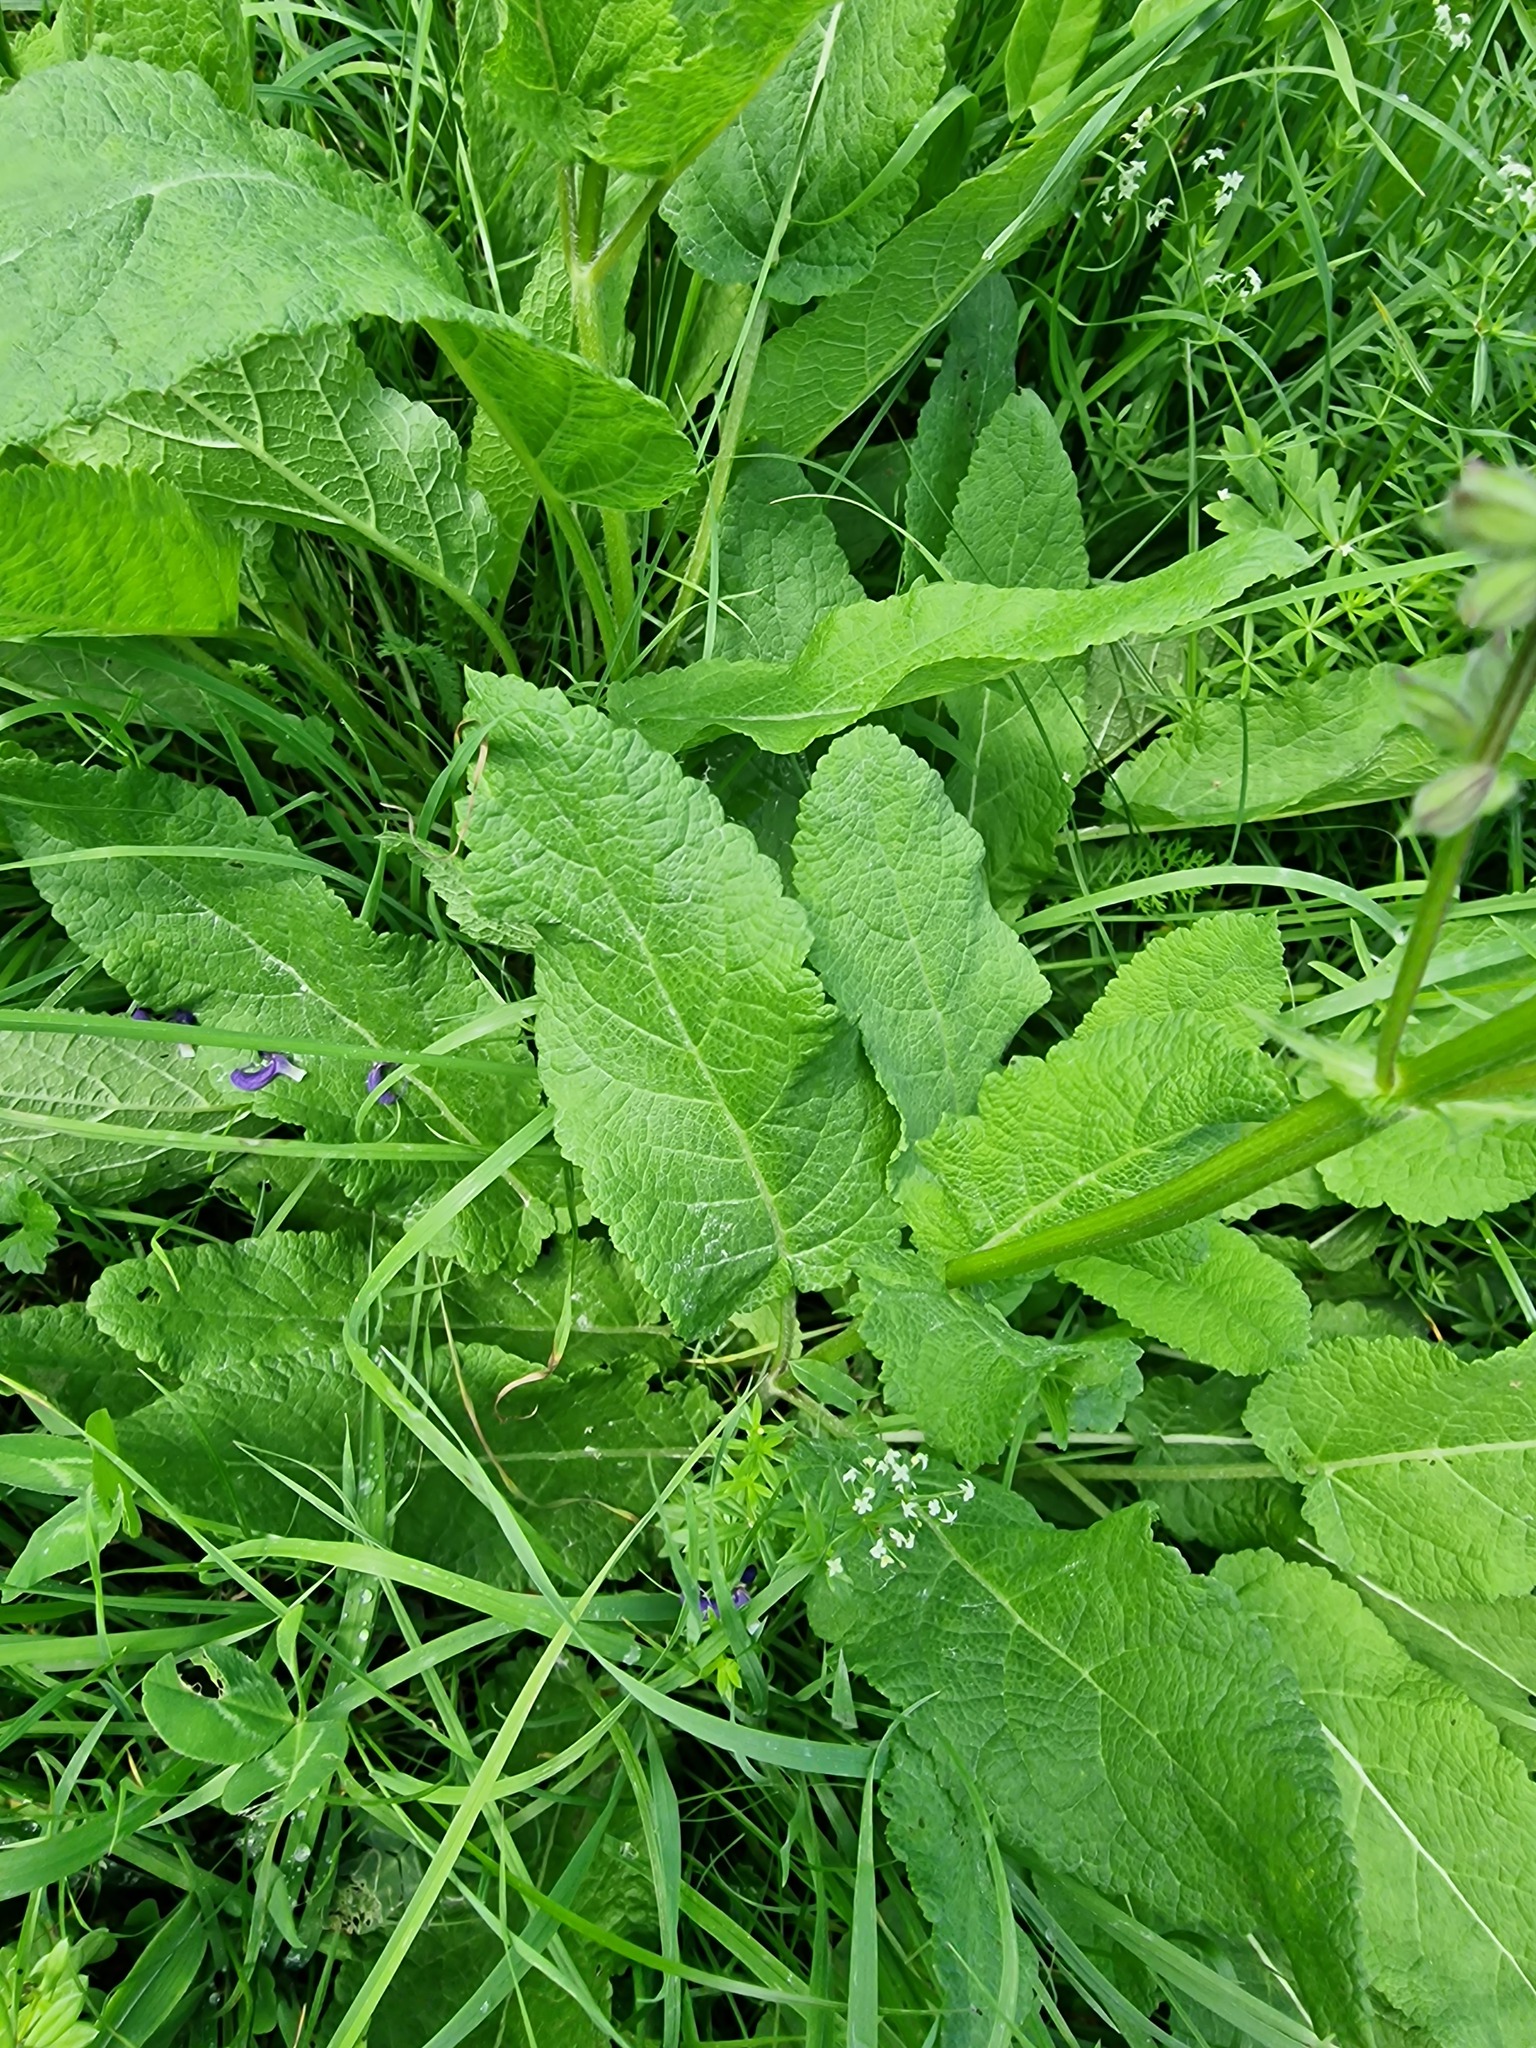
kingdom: Plantae
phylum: Tracheophyta
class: Magnoliopsida
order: Lamiales
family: Lamiaceae
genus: Salvia
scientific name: Salvia pratensis
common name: Meadow sage
